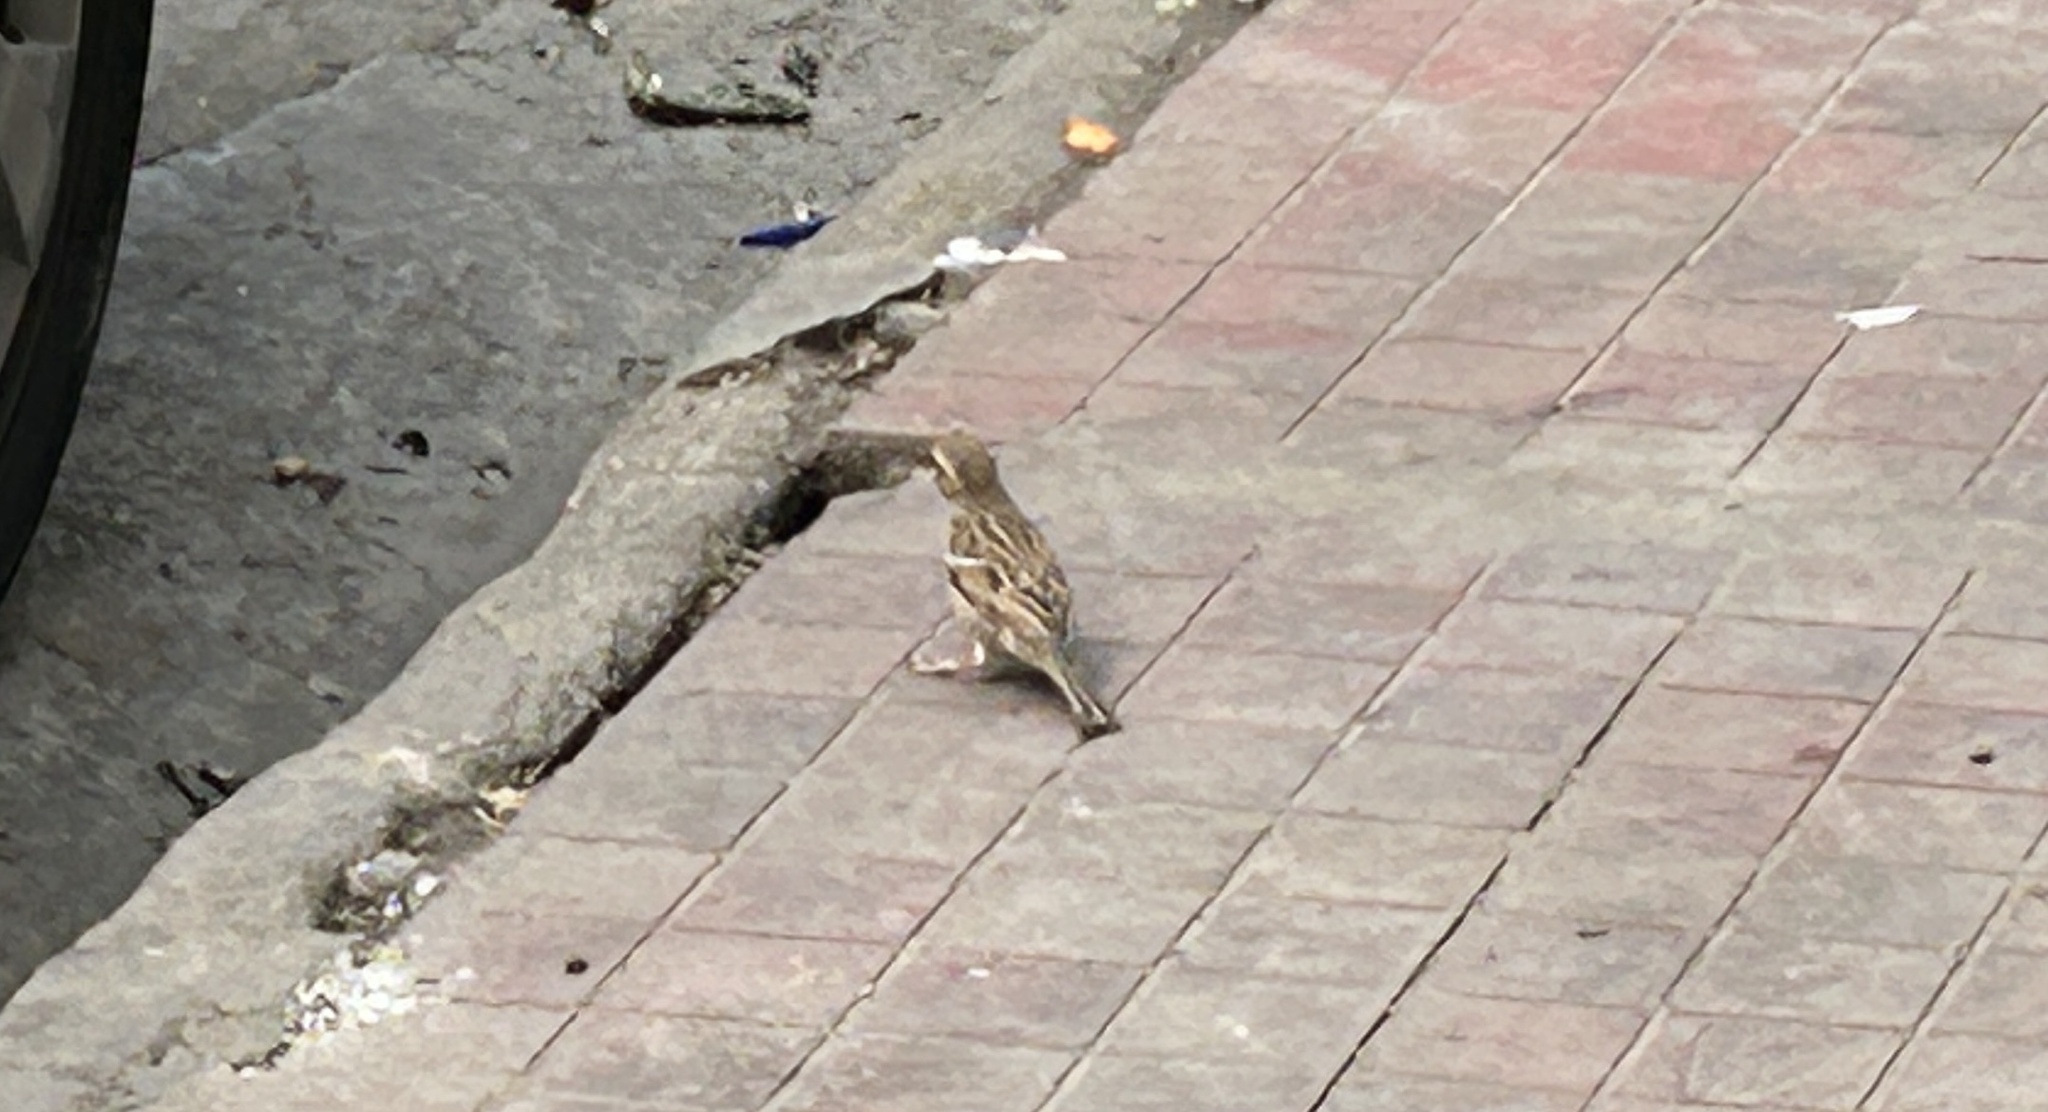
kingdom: Animalia
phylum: Chordata
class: Aves
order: Passeriformes
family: Passeridae
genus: Passer
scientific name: Passer domesticus
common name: House sparrow
